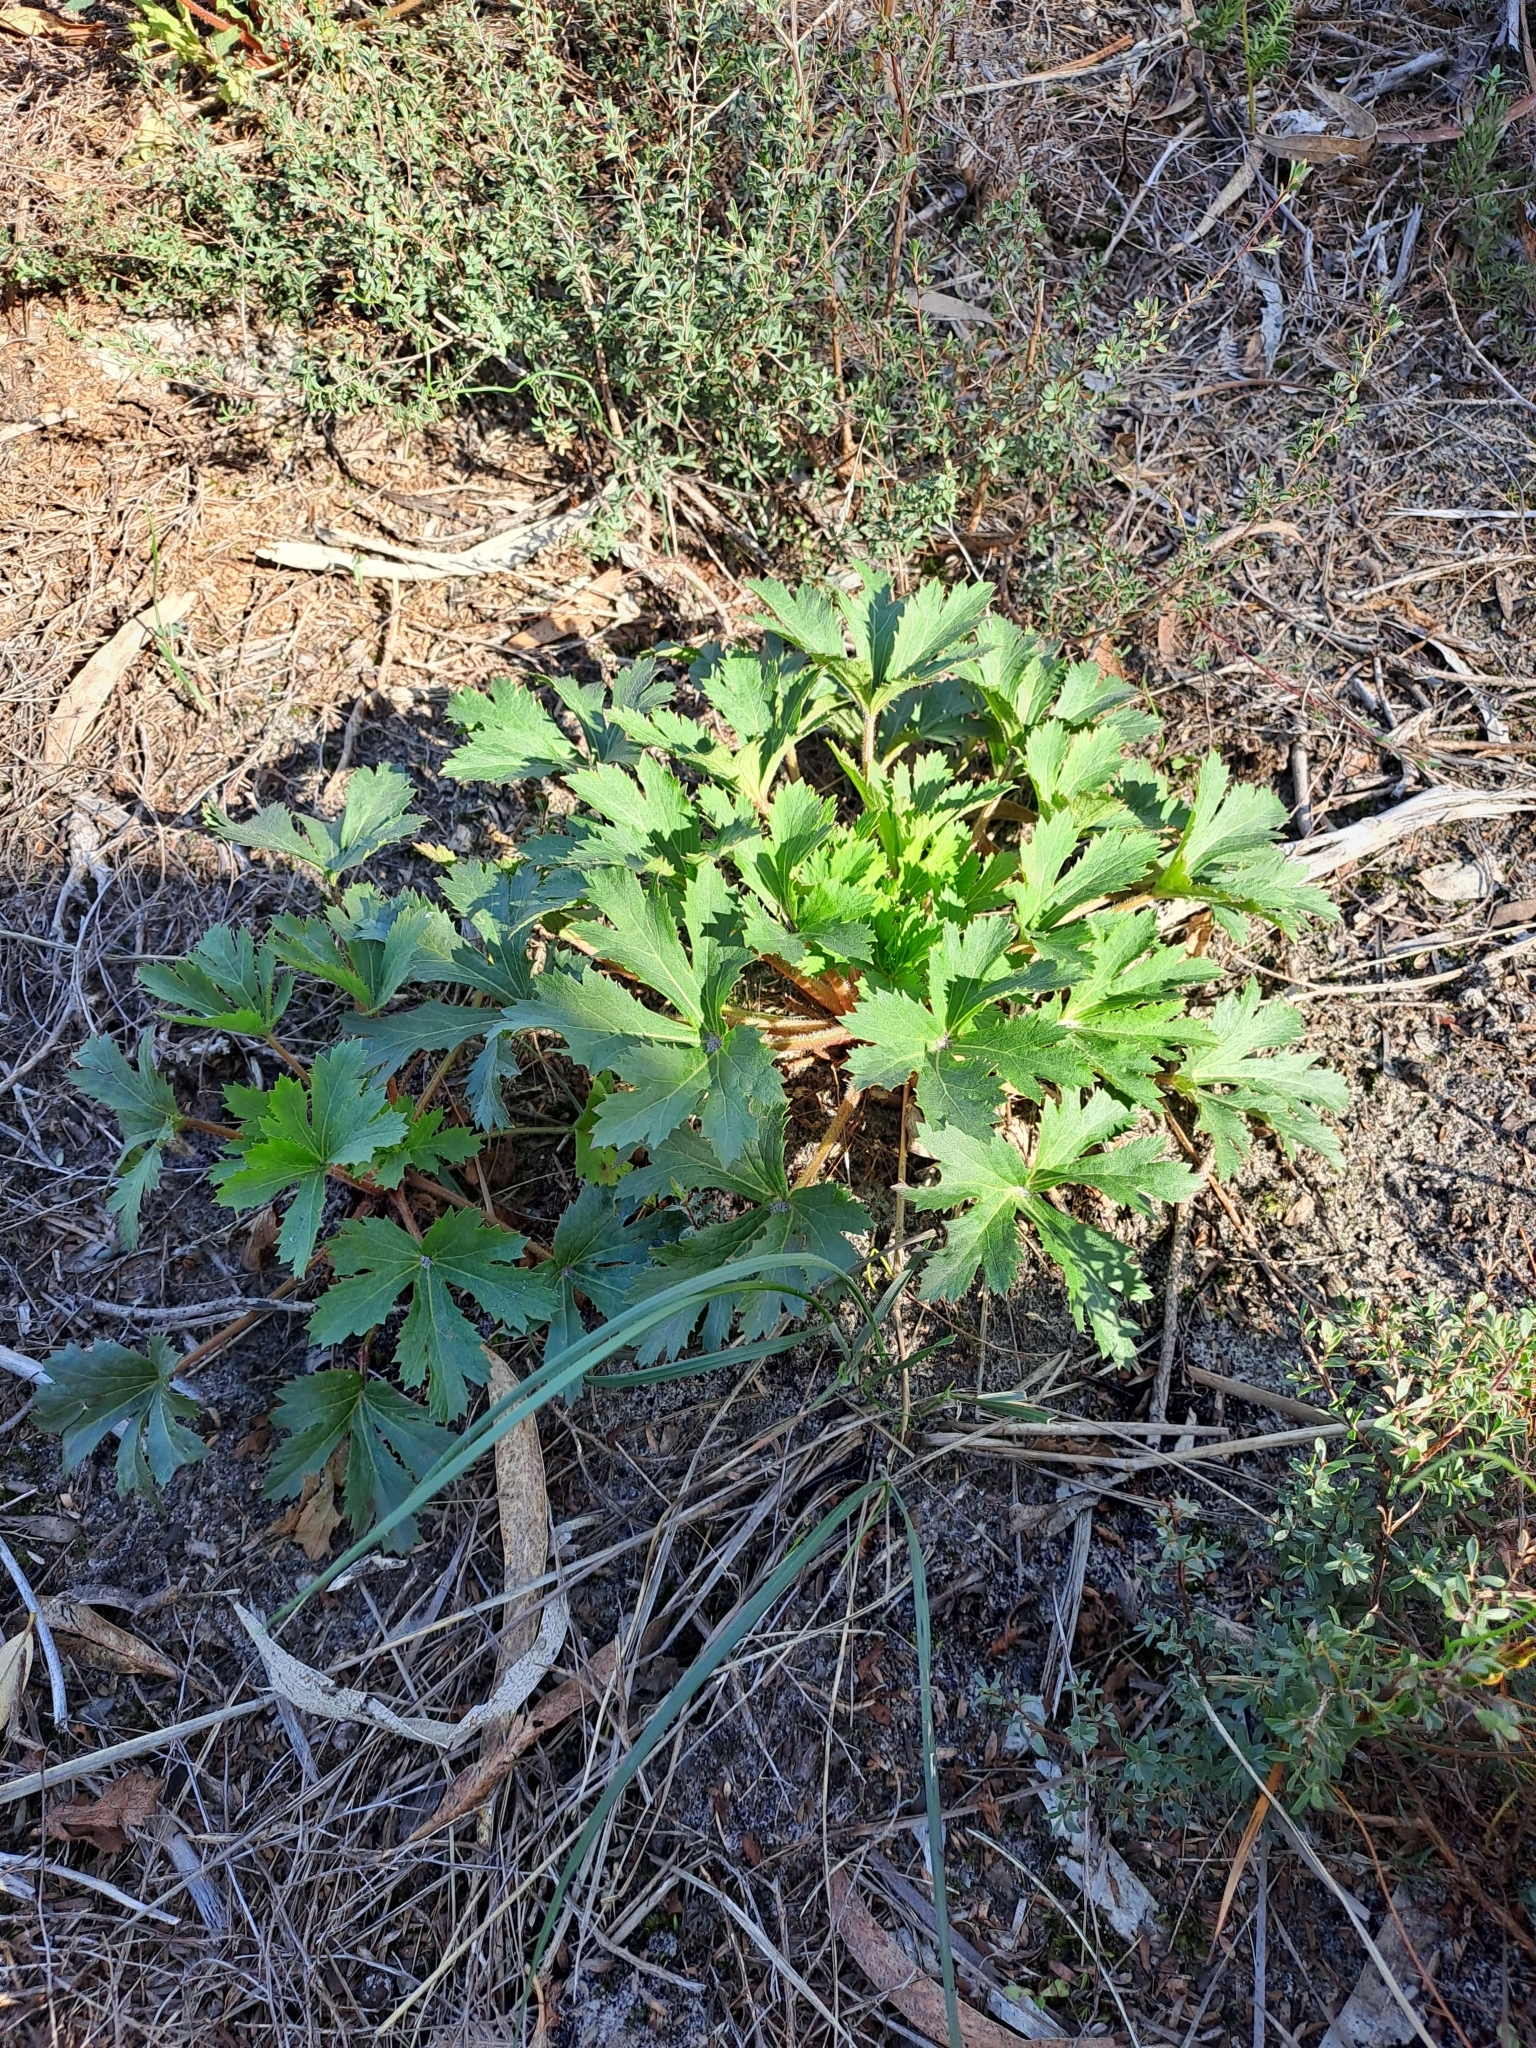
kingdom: Plantae
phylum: Tracheophyta
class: Magnoliopsida
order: Apiales
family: Araliaceae
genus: Trachymene
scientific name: Trachymene composita
